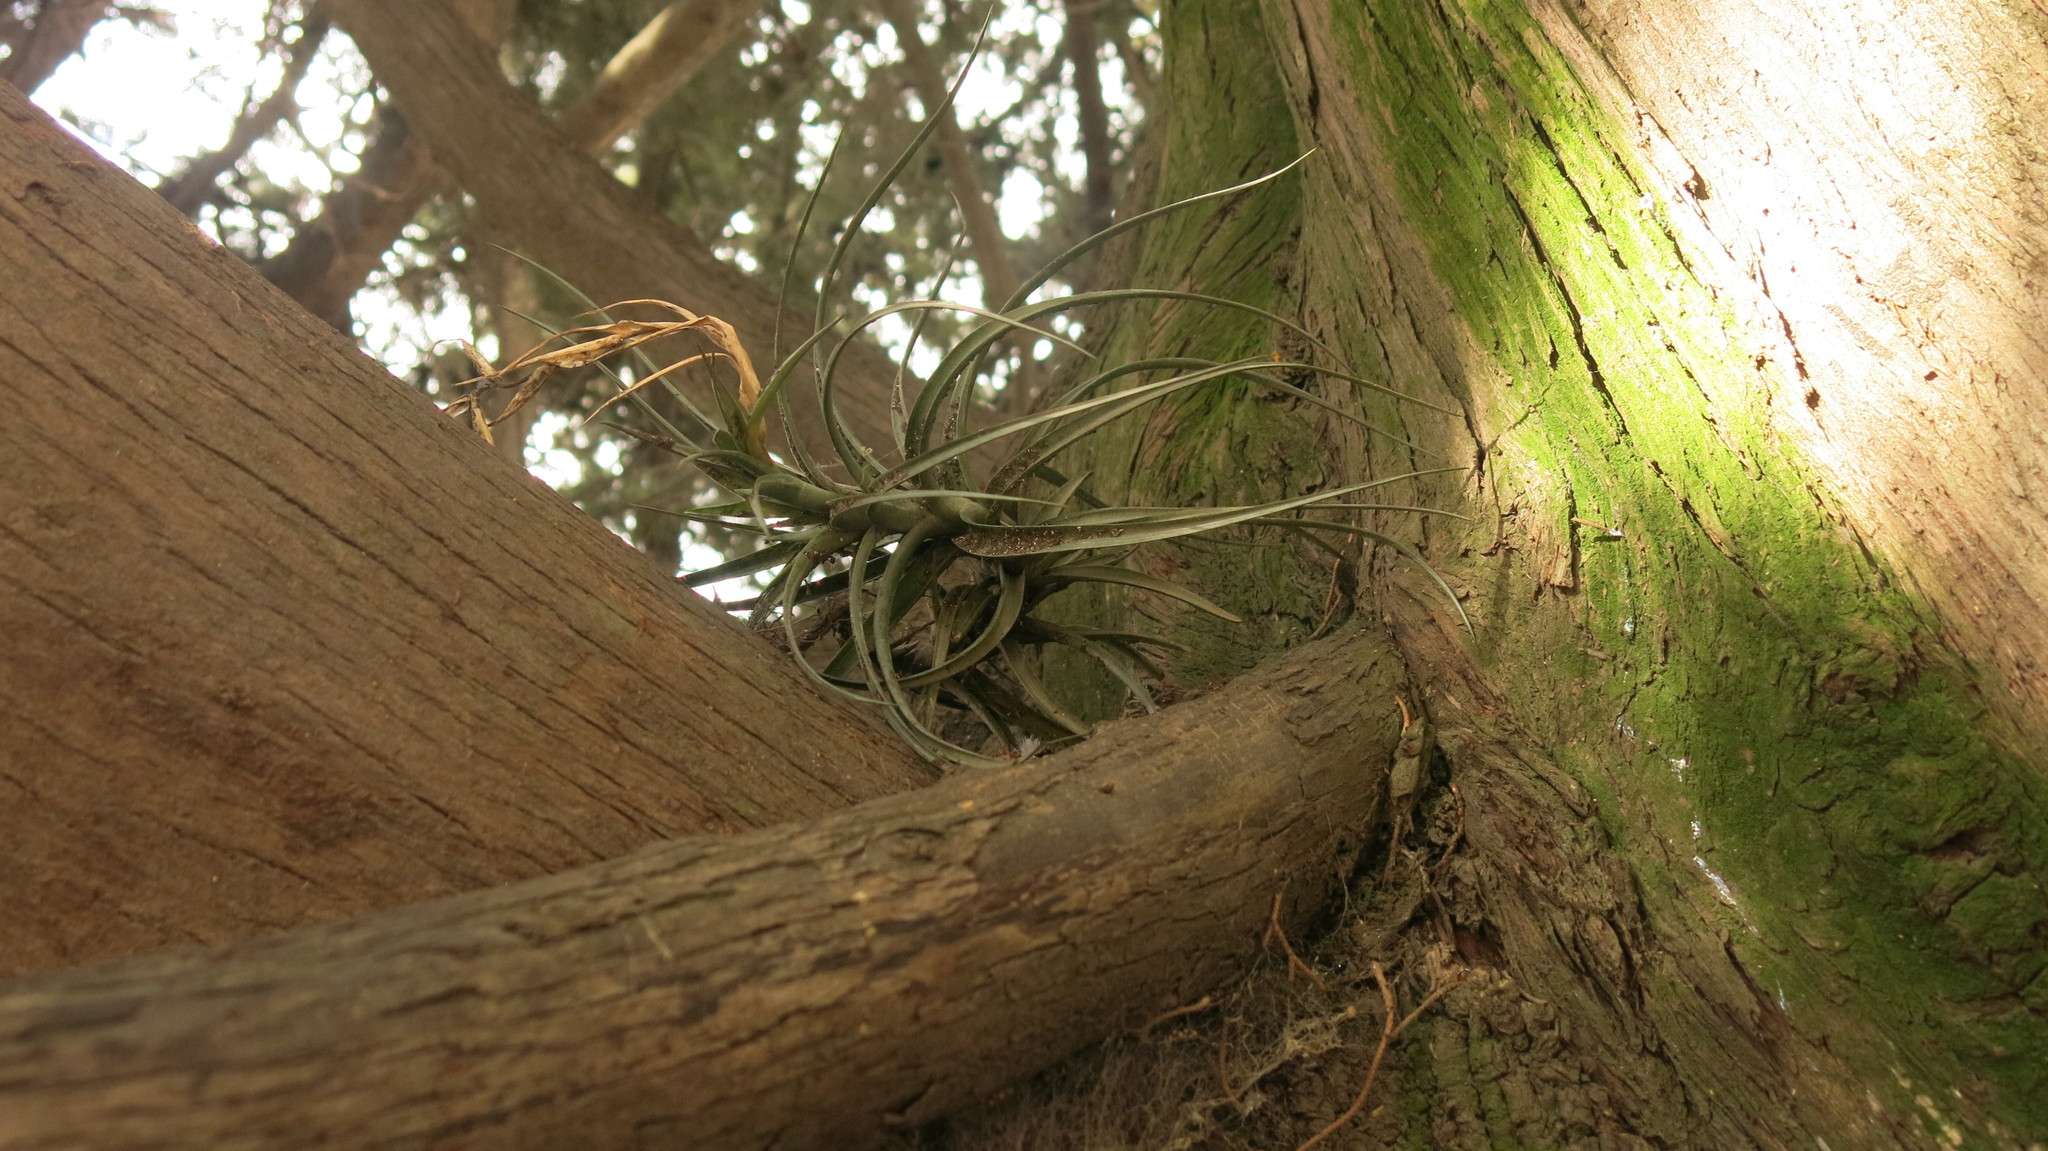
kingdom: Plantae
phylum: Tracheophyta
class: Liliopsida
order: Poales
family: Bromeliaceae
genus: Tillandsia
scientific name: Tillandsia aeranthos
